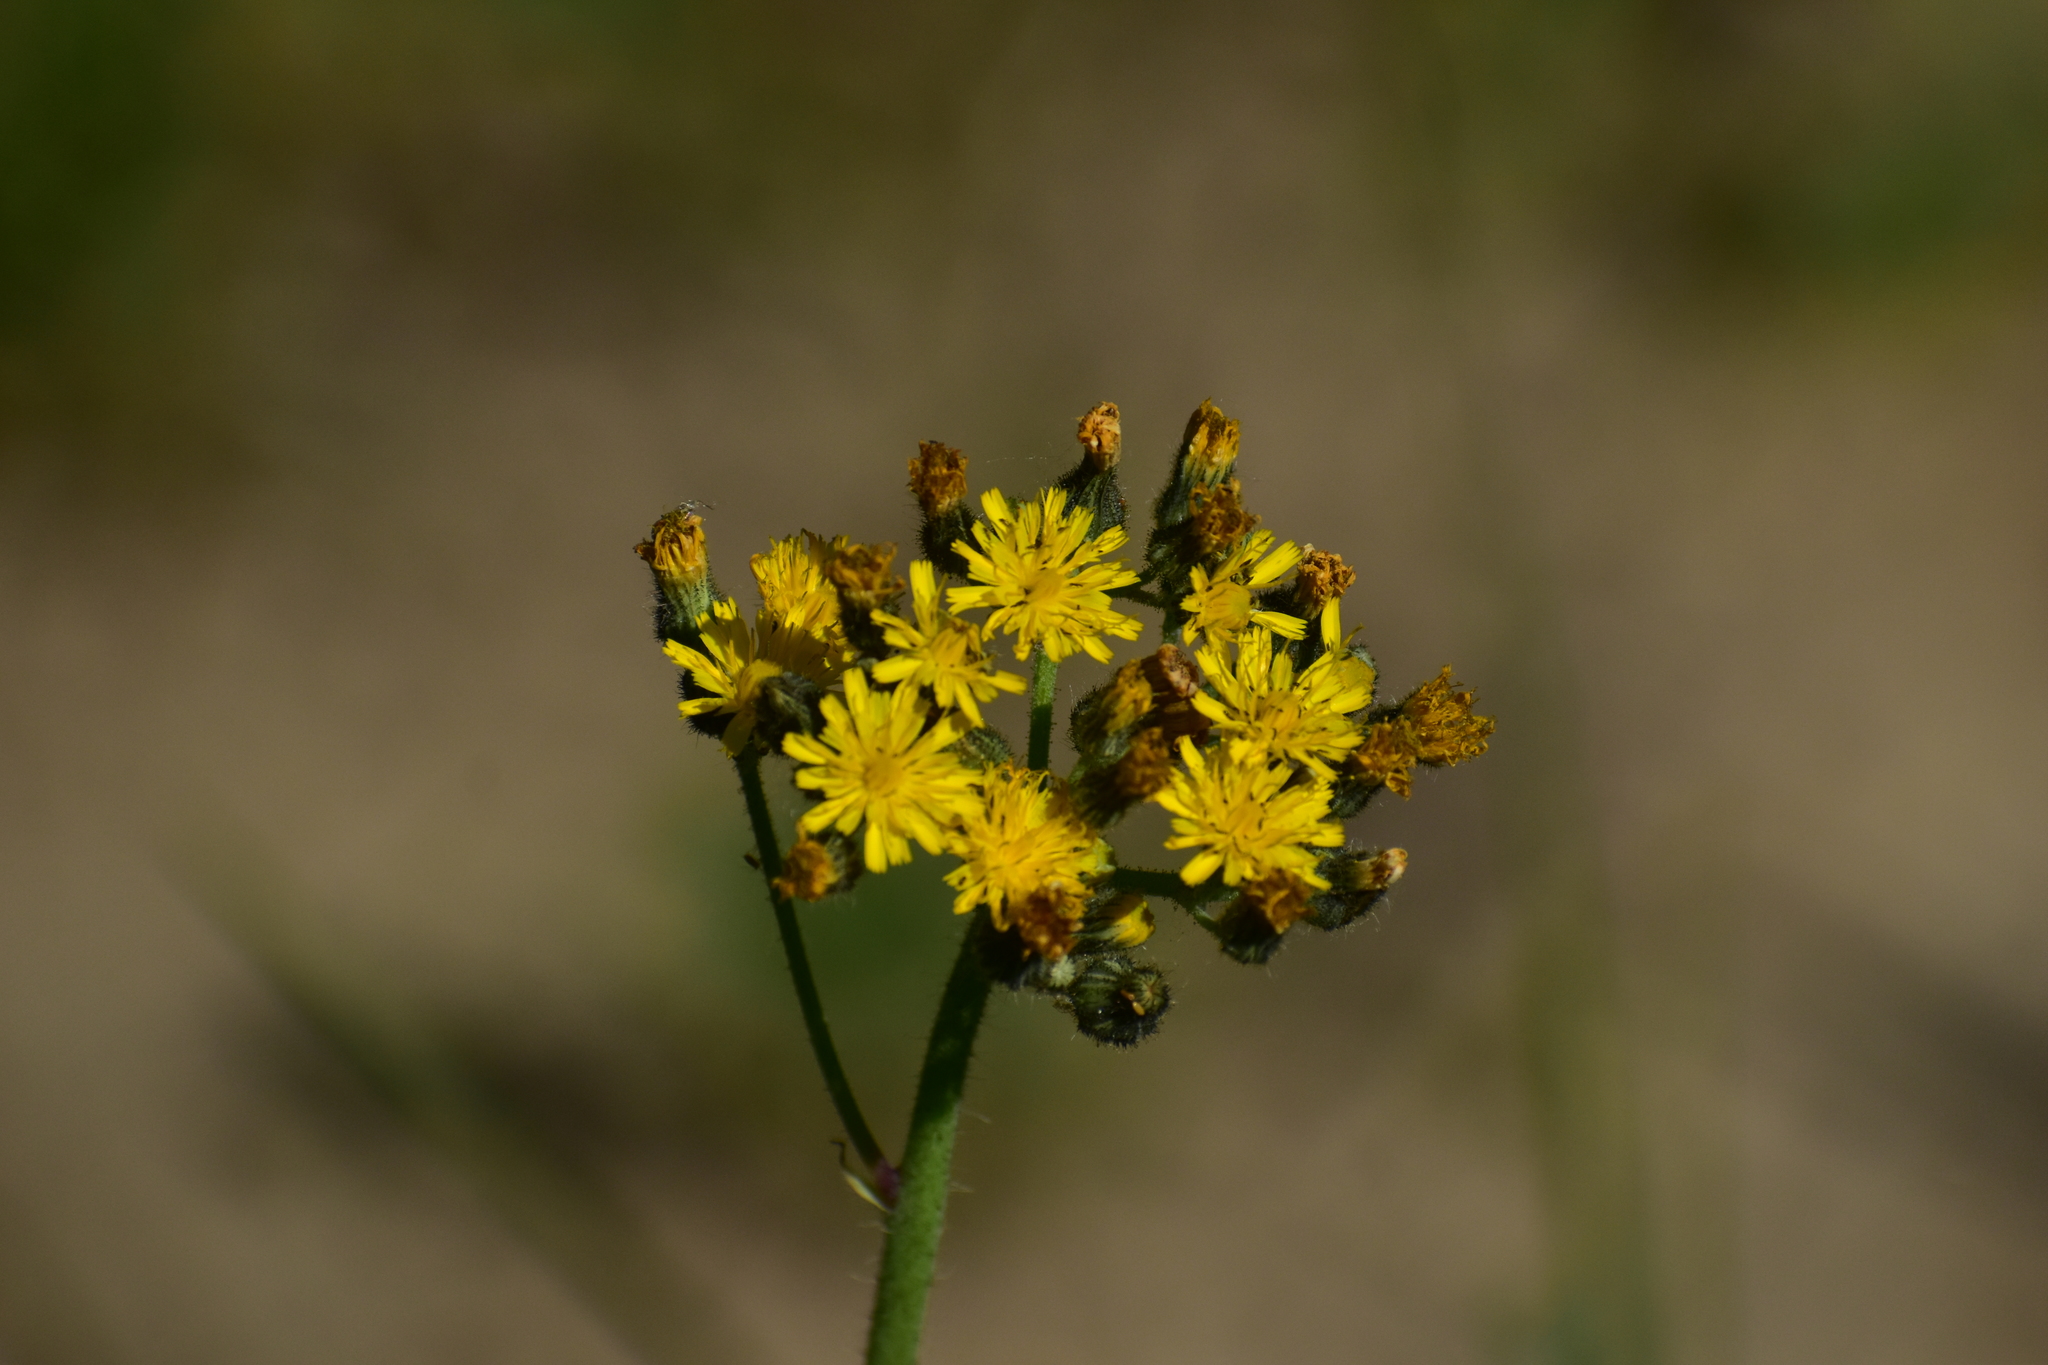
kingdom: Plantae
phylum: Tracheophyta
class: Magnoliopsida
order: Asterales
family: Asteraceae
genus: Pilosella
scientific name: Pilosella
